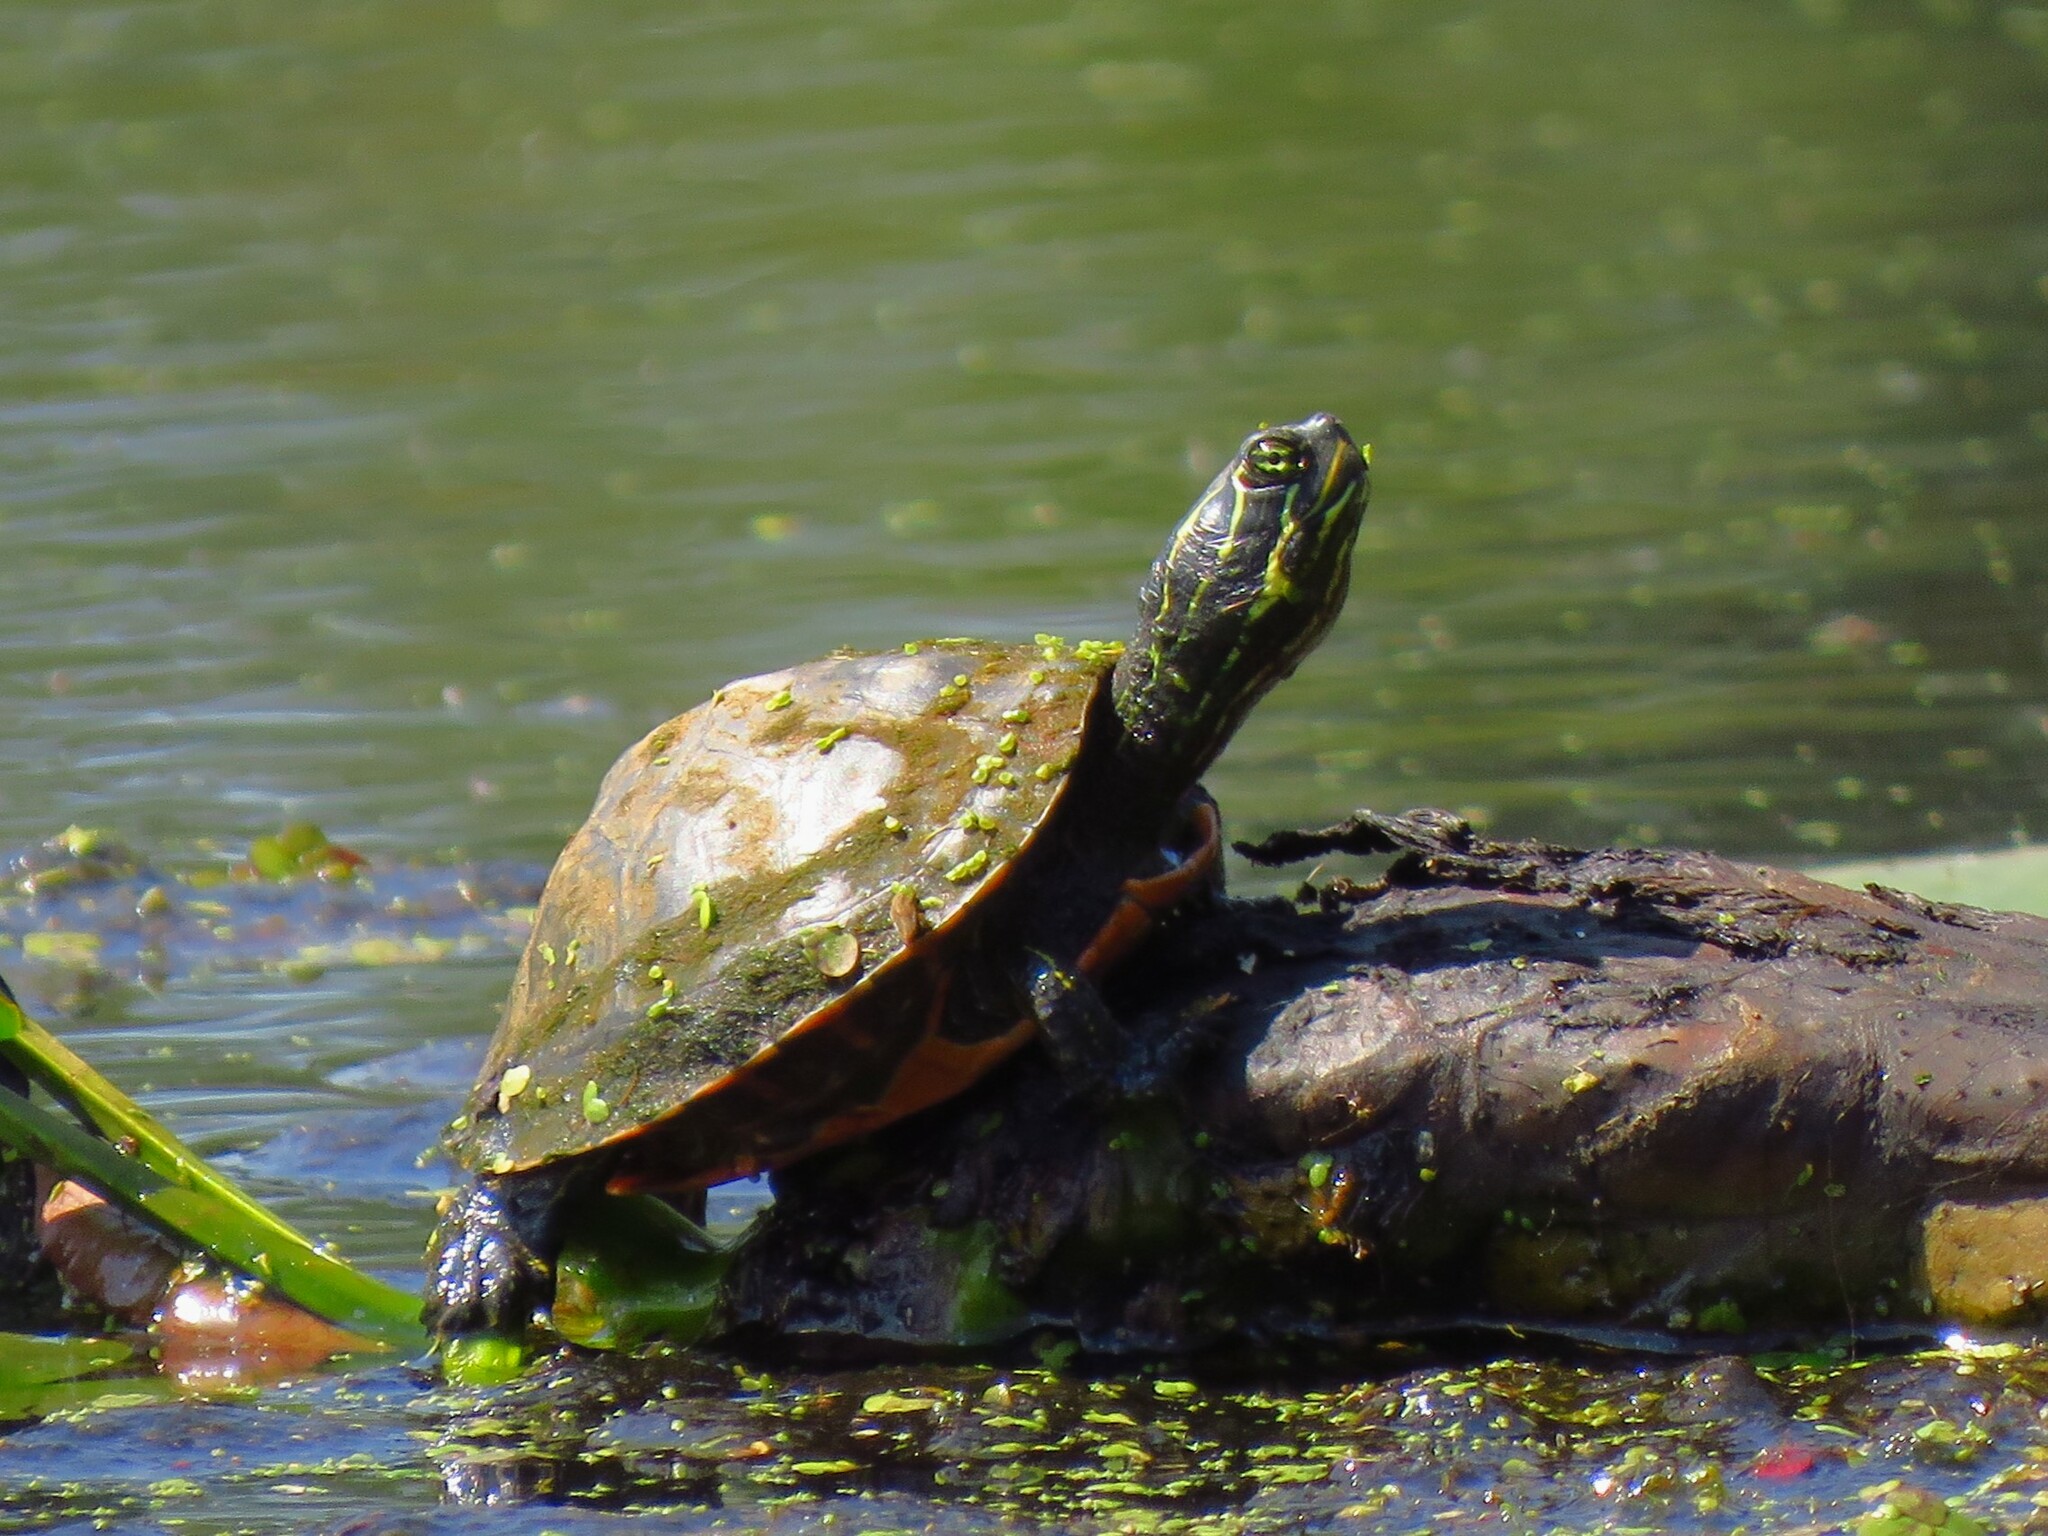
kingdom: Animalia
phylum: Chordata
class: Testudines
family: Emydidae
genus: Pseudemys
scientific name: Pseudemys rubriventris
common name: American red-bellied turtle
